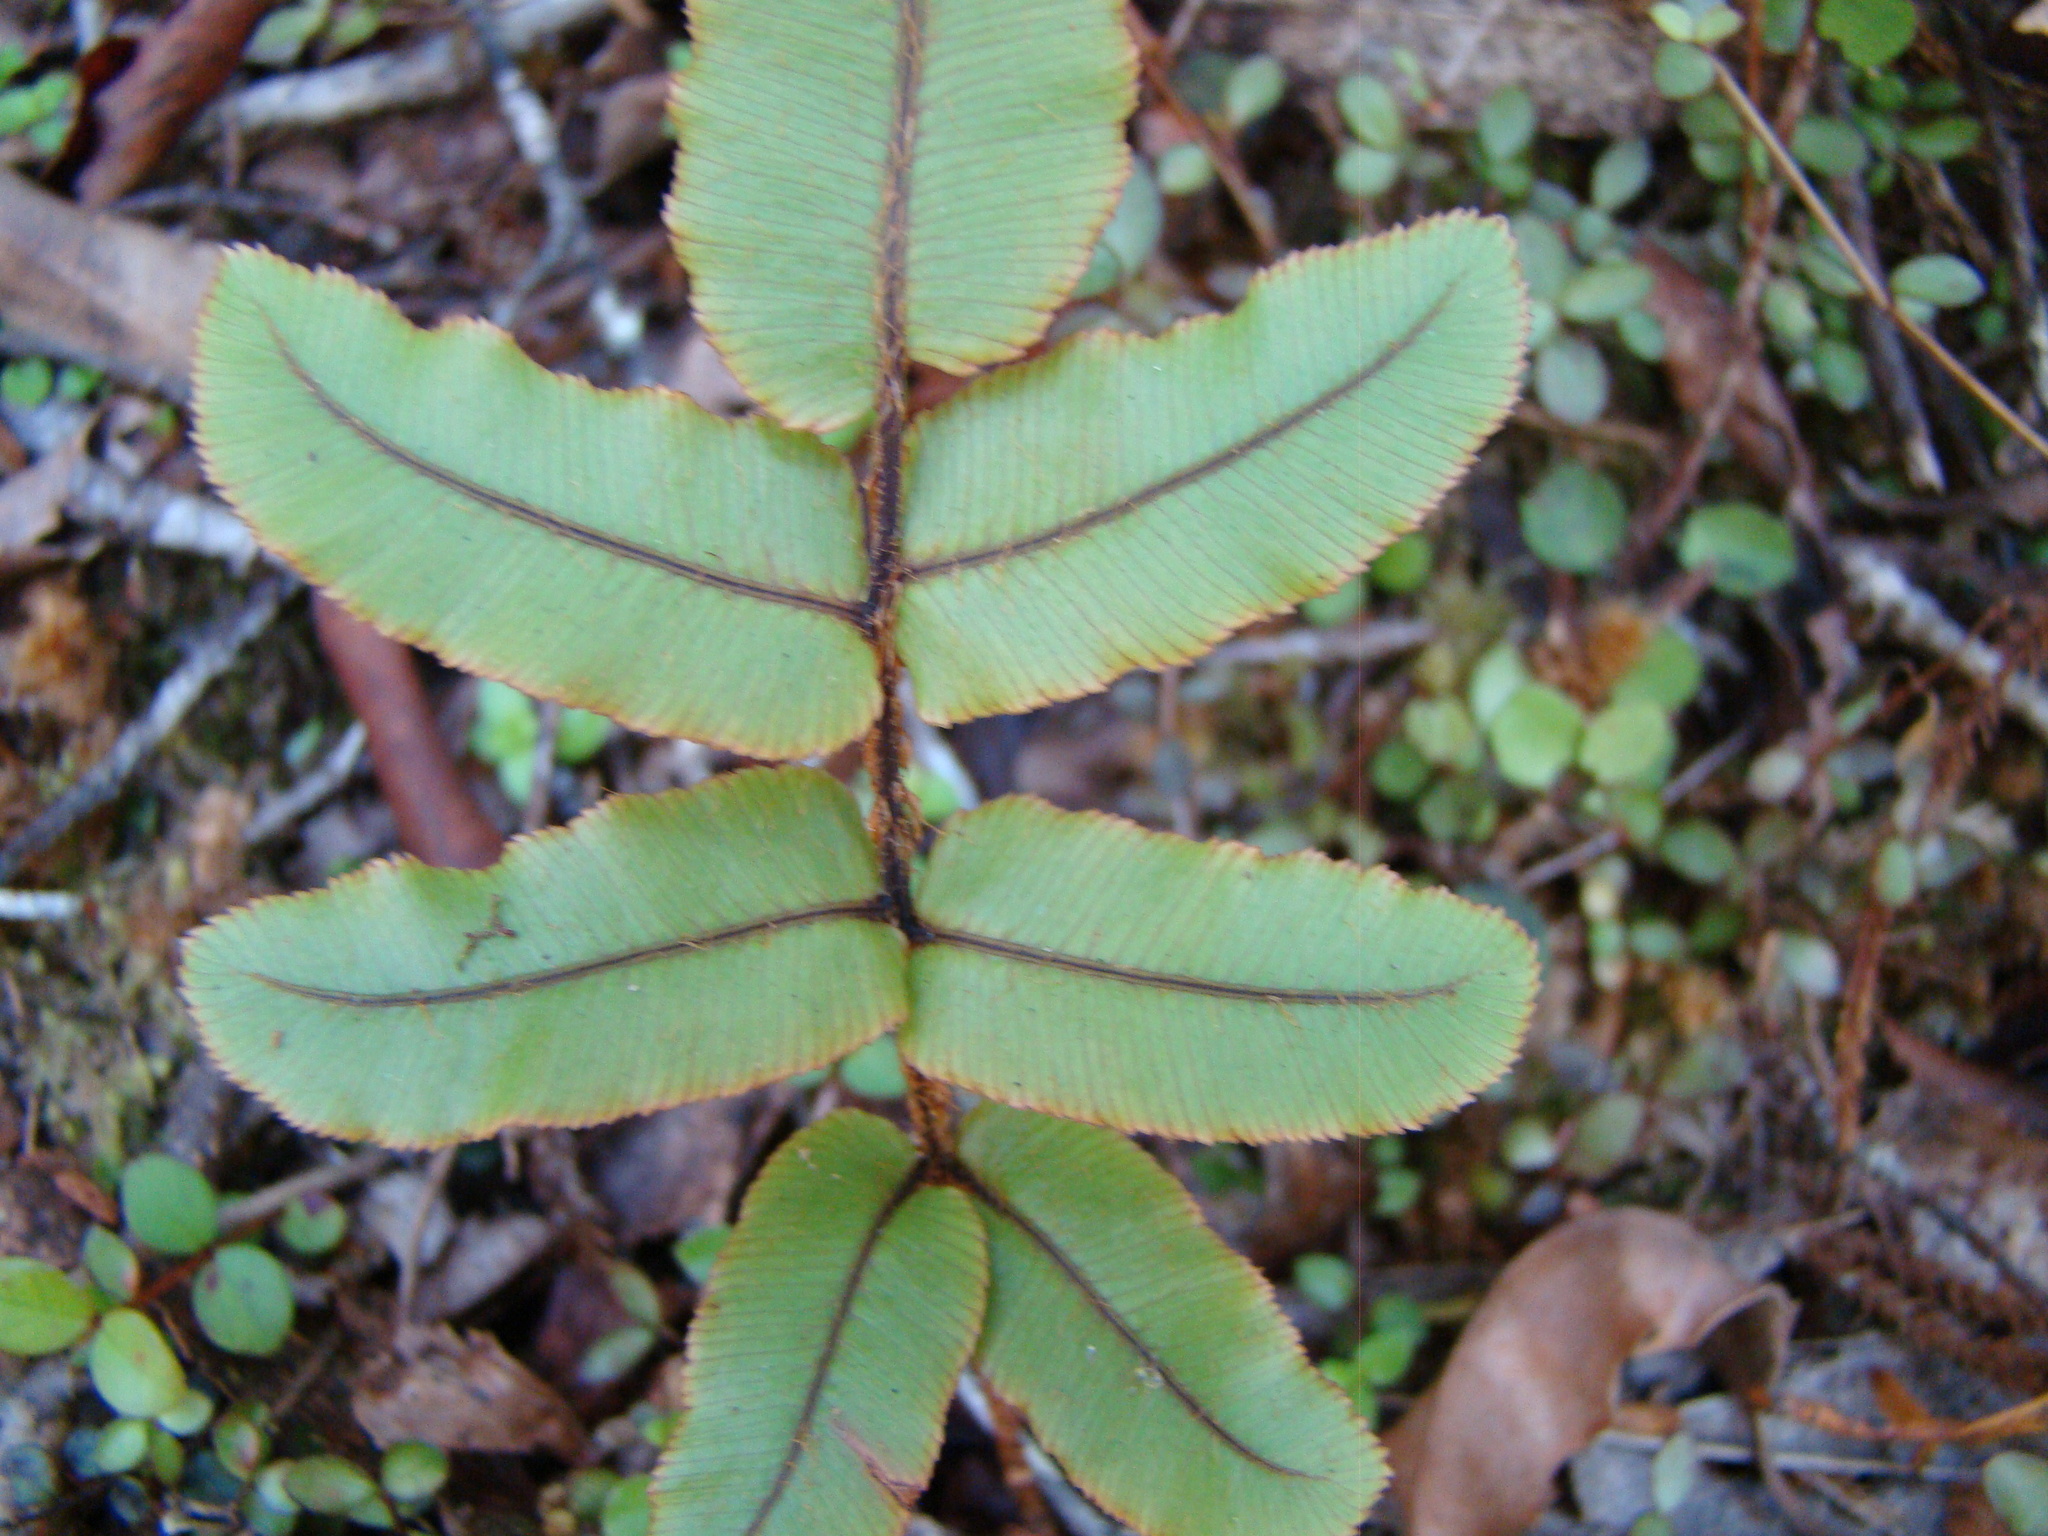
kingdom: Plantae
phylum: Tracheophyta
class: Polypodiopsida
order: Polypodiales
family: Blechnaceae
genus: Parablechnum
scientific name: Parablechnum procerum
